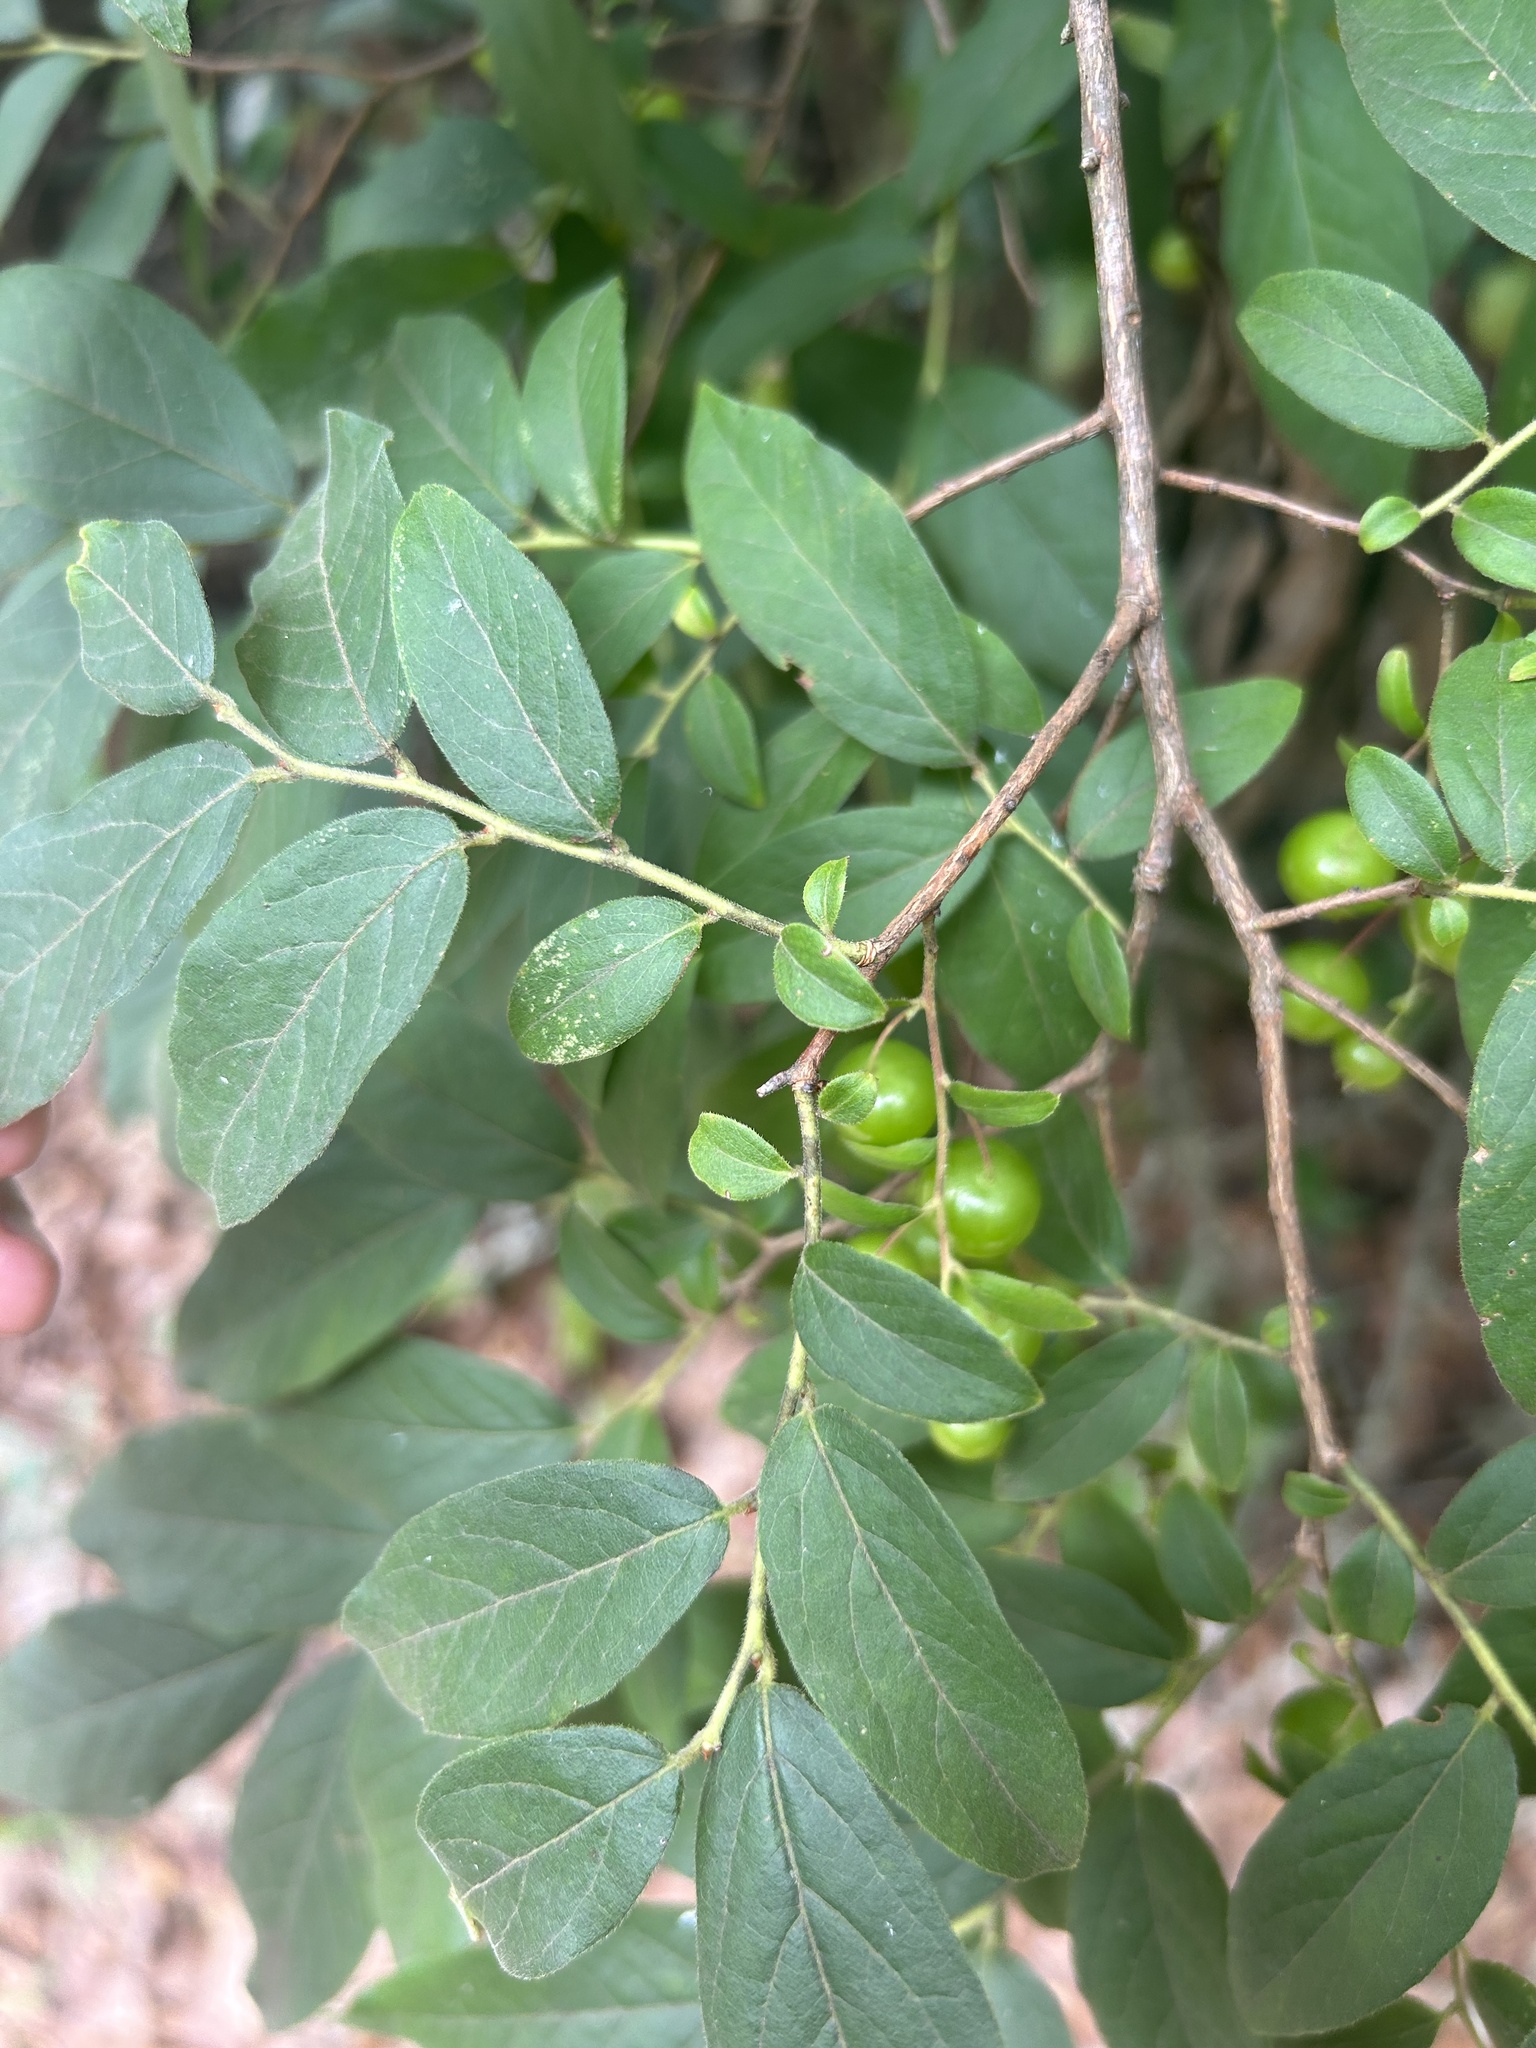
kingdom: Plantae
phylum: Tracheophyta
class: Magnoliopsida
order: Ericales
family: Ericaceae
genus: Vaccinium
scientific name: Vaccinium stamineum
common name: Deerberry
